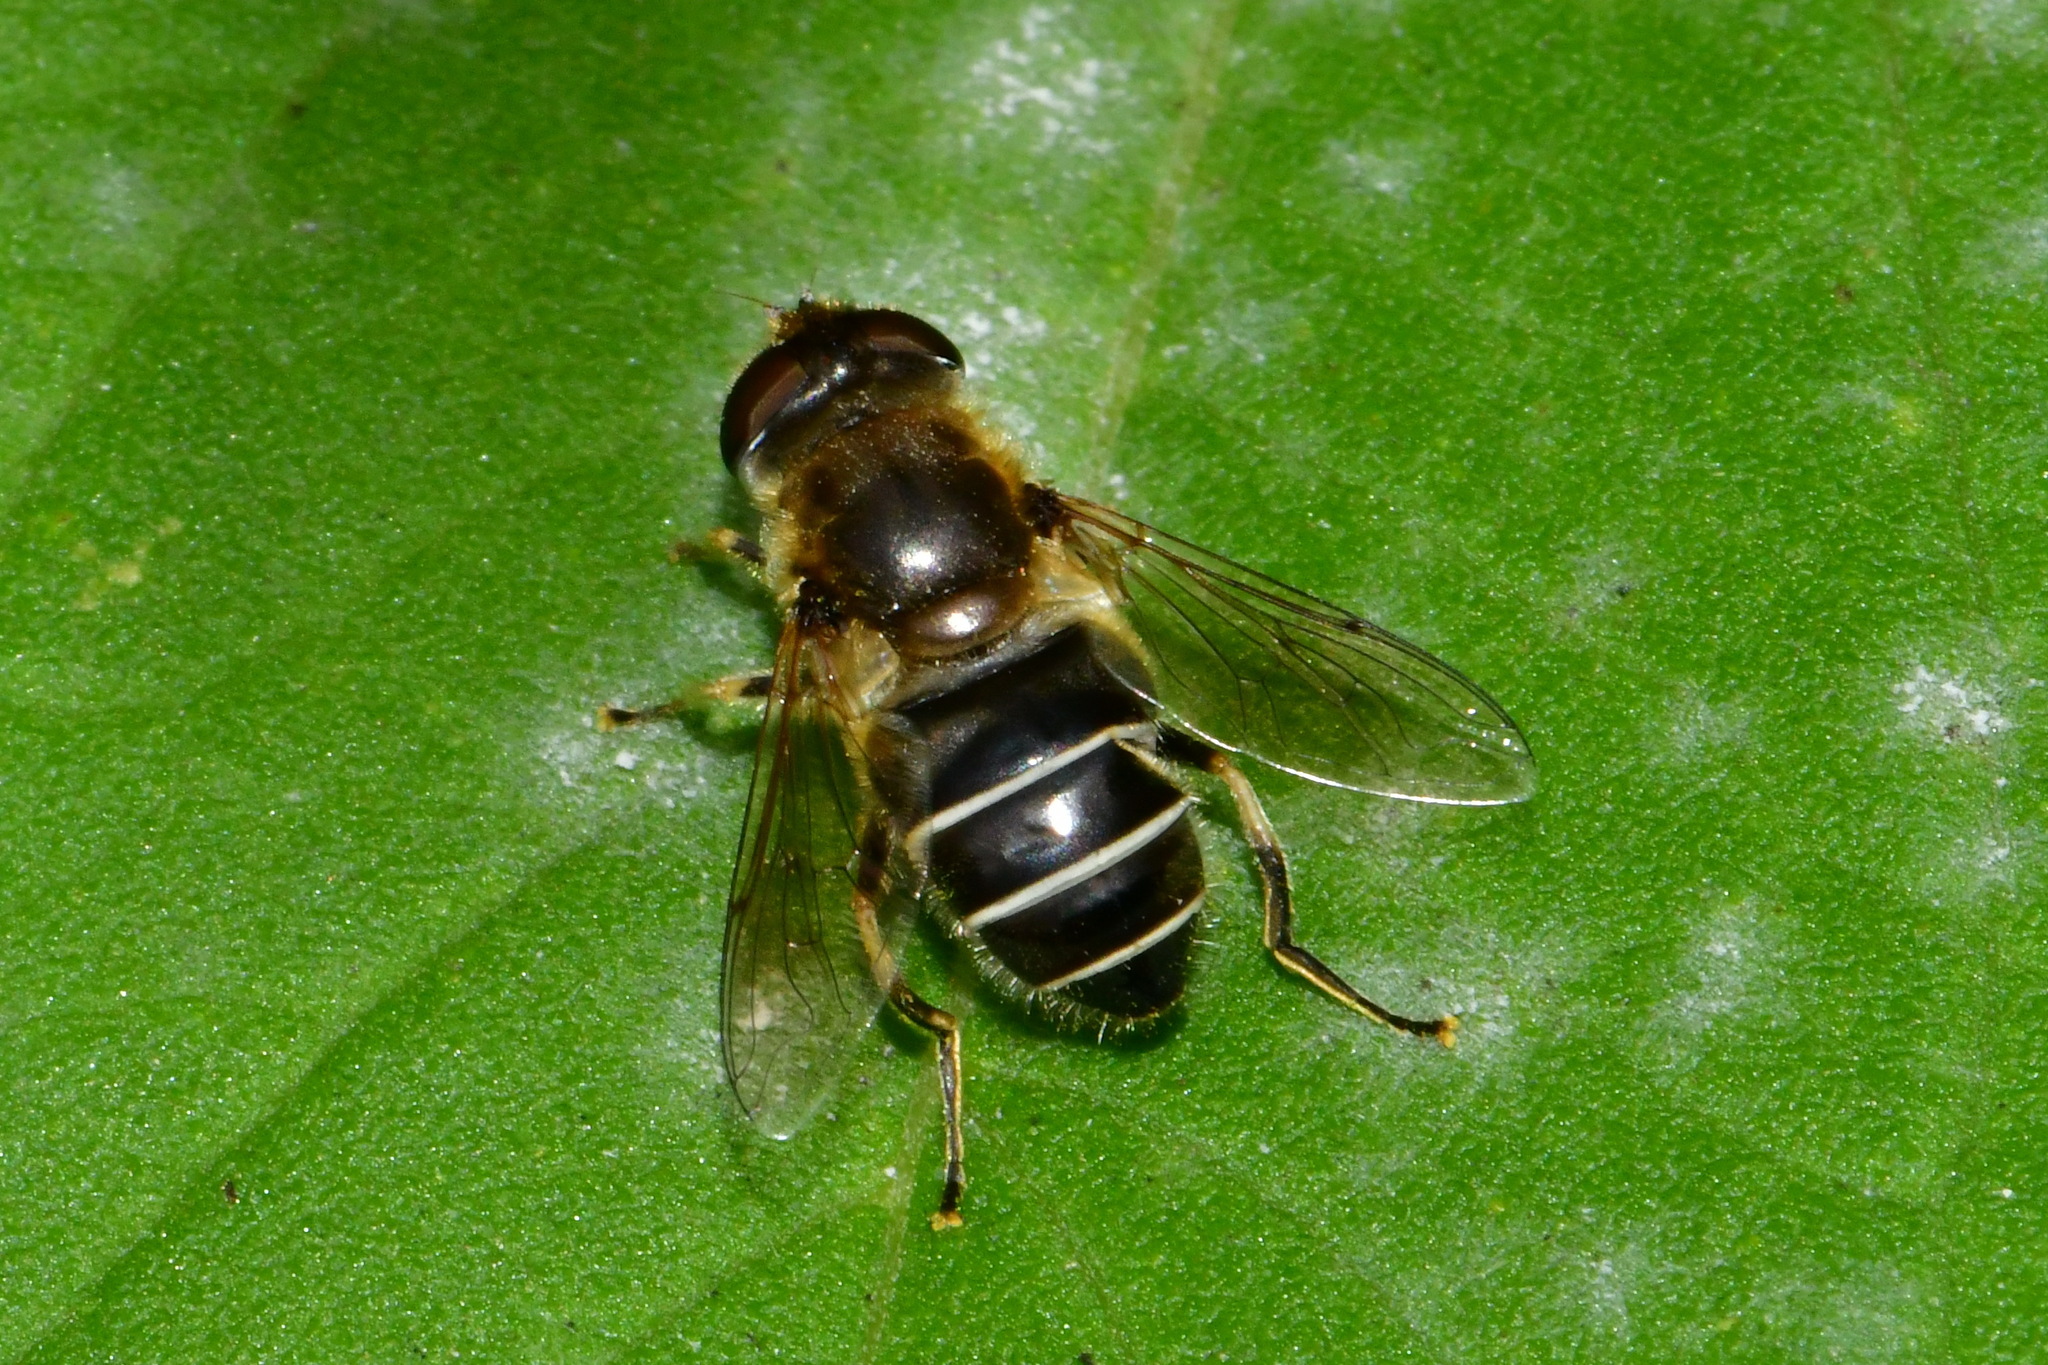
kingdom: Animalia
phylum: Arthropoda
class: Insecta
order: Diptera
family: Syrphidae
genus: Eristalis
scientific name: Eristalis nemorum
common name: Orange-spined drone fly
